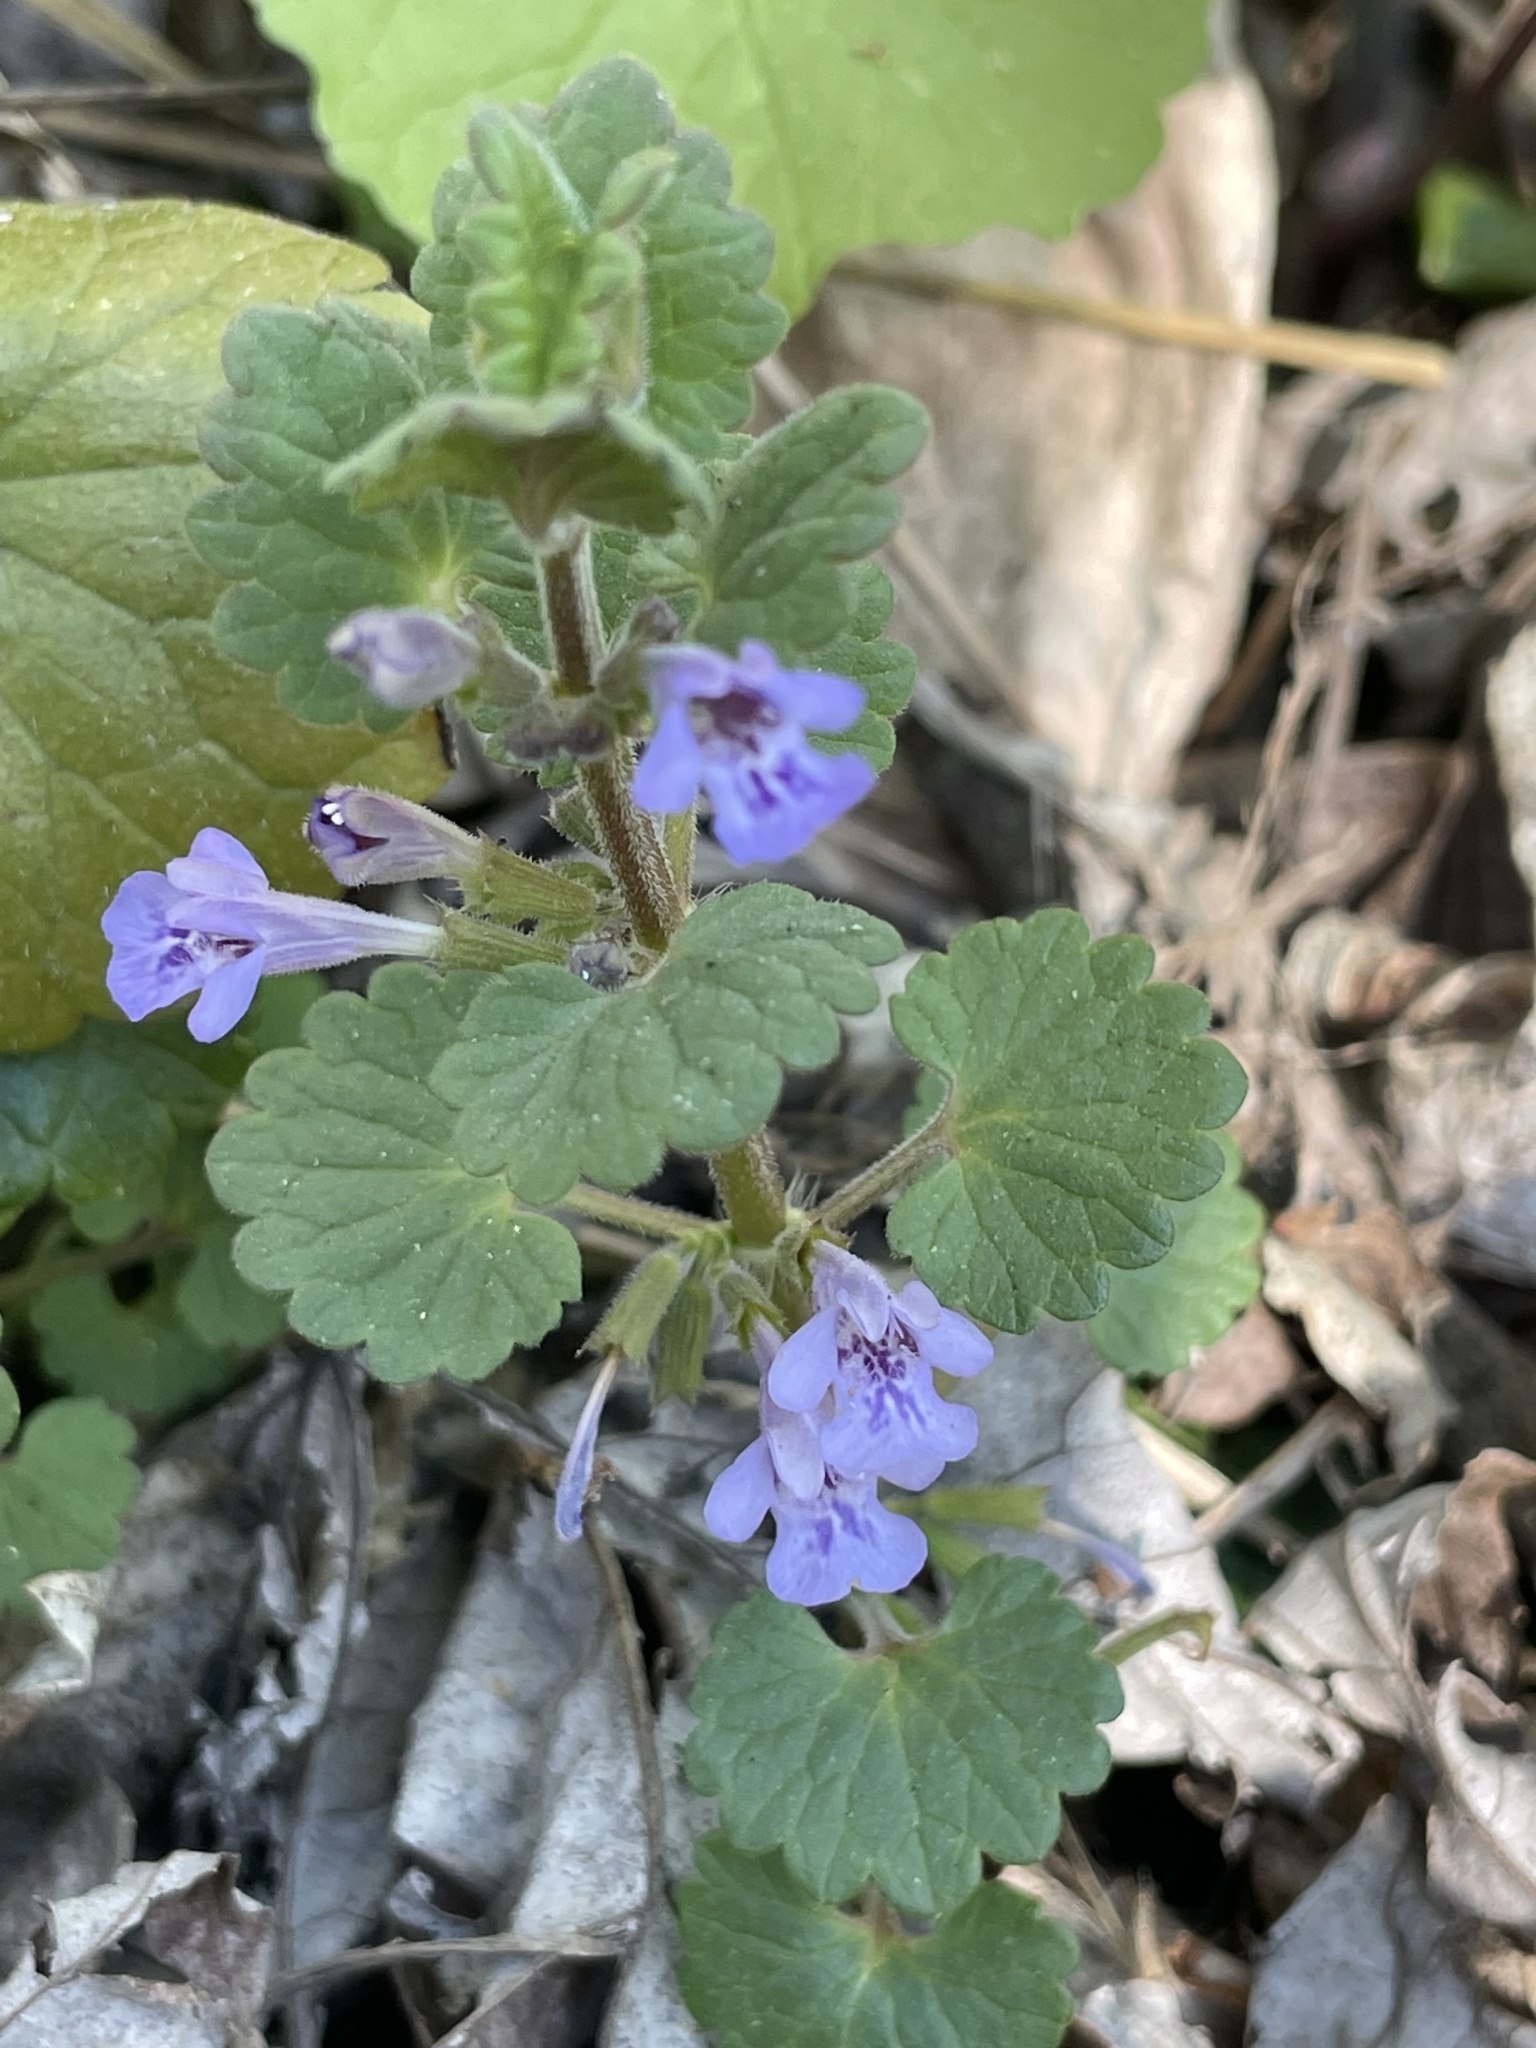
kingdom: Plantae
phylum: Tracheophyta
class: Magnoliopsida
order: Lamiales
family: Lamiaceae
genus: Glechoma
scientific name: Glechoma hederacea
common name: Ground ivy
